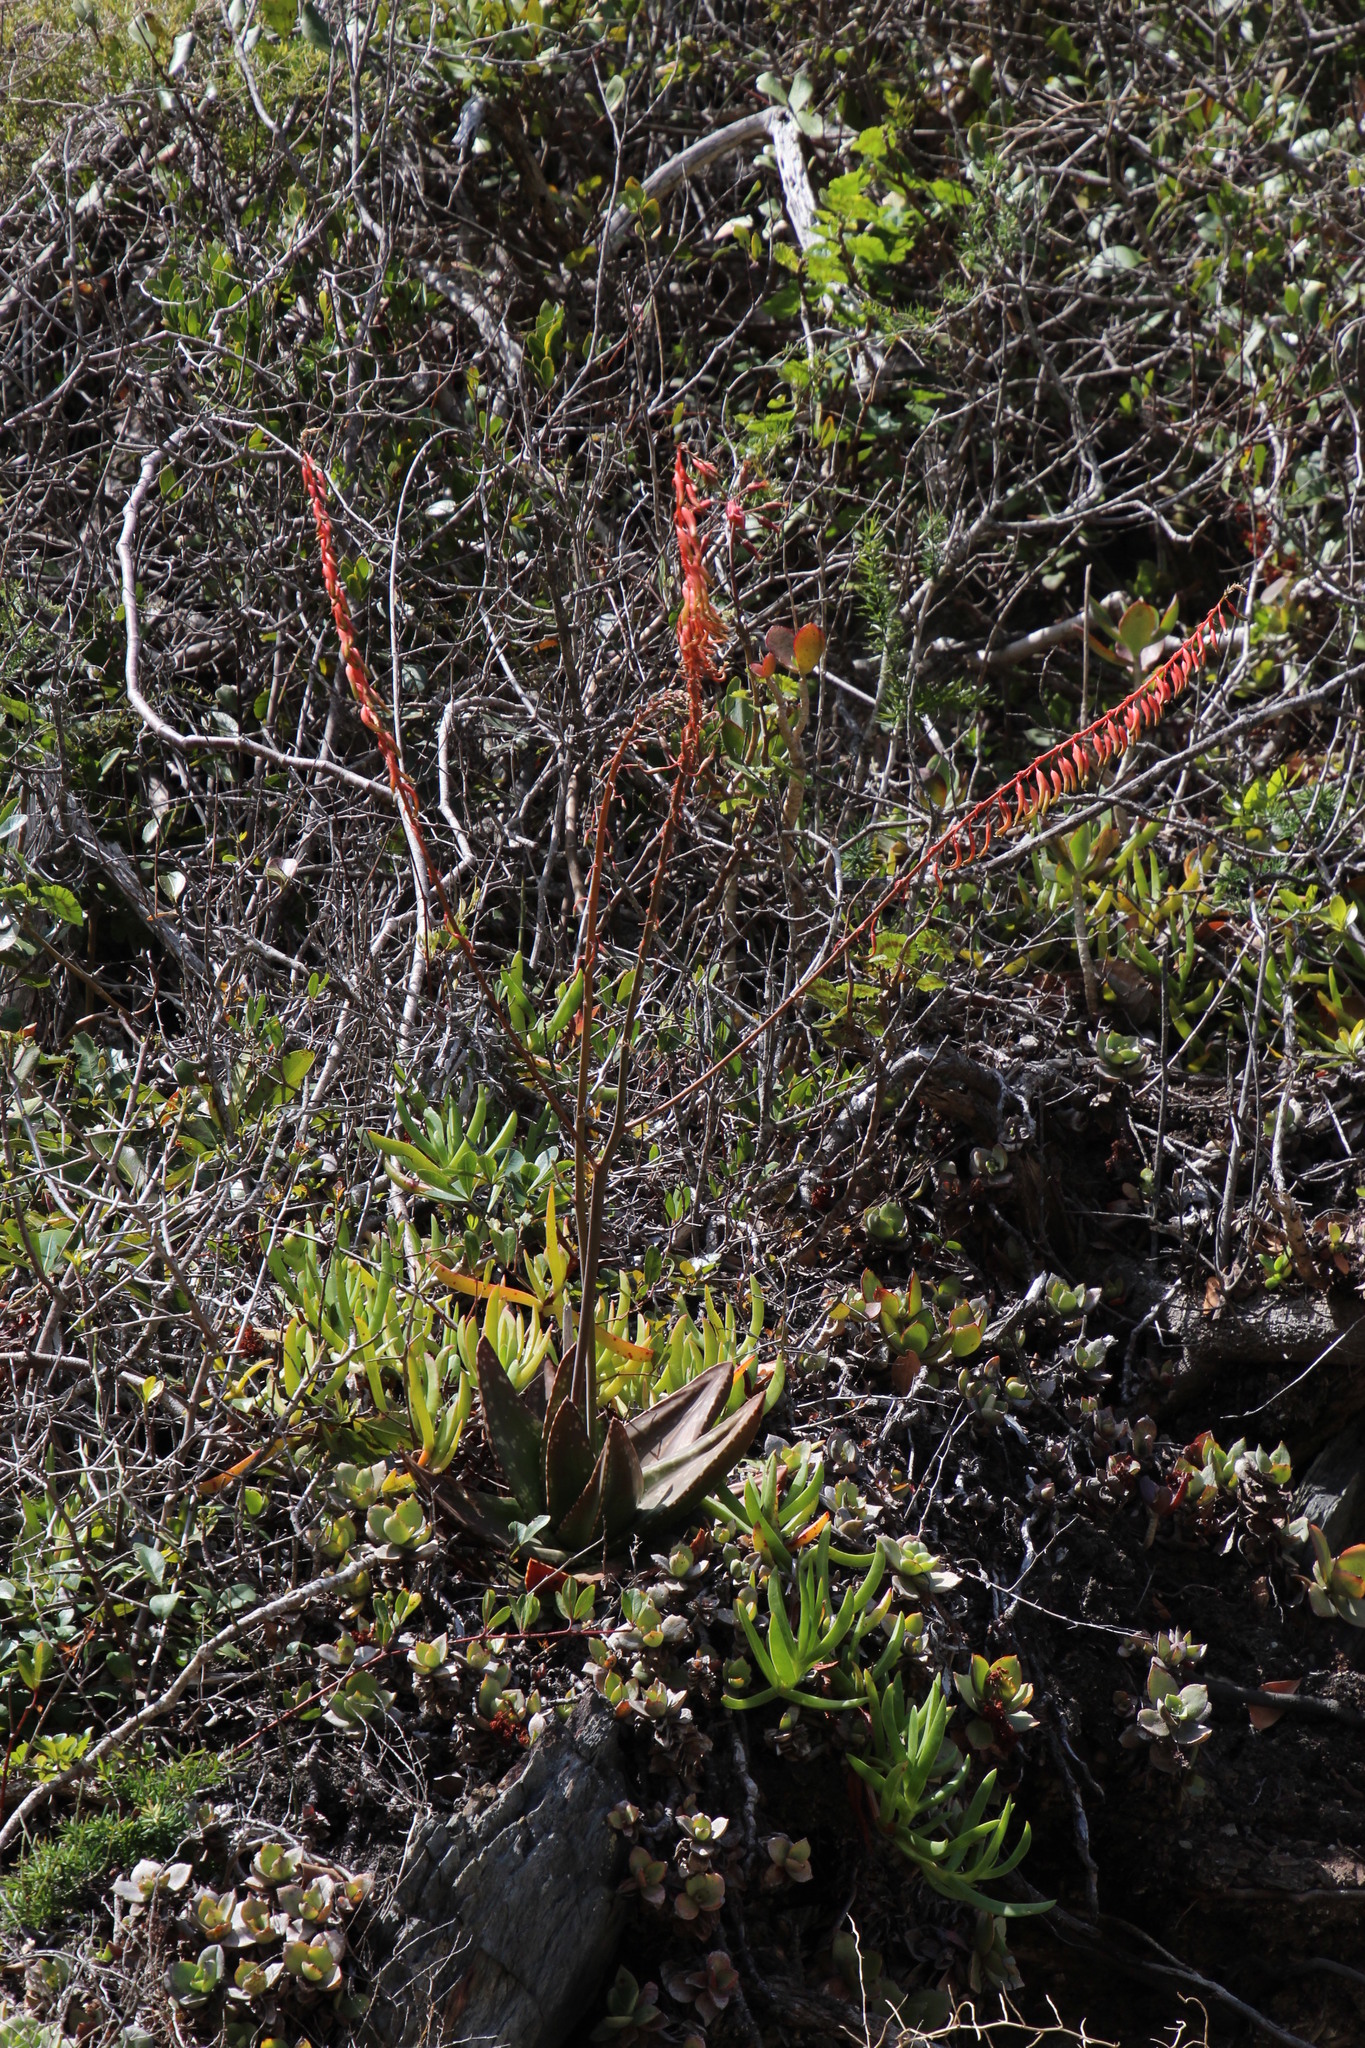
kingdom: Plantae
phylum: Tracheophyta
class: Liliopsida
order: Asparagales
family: Asphodelaceae
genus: Gasteria
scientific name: Gasteria polita
